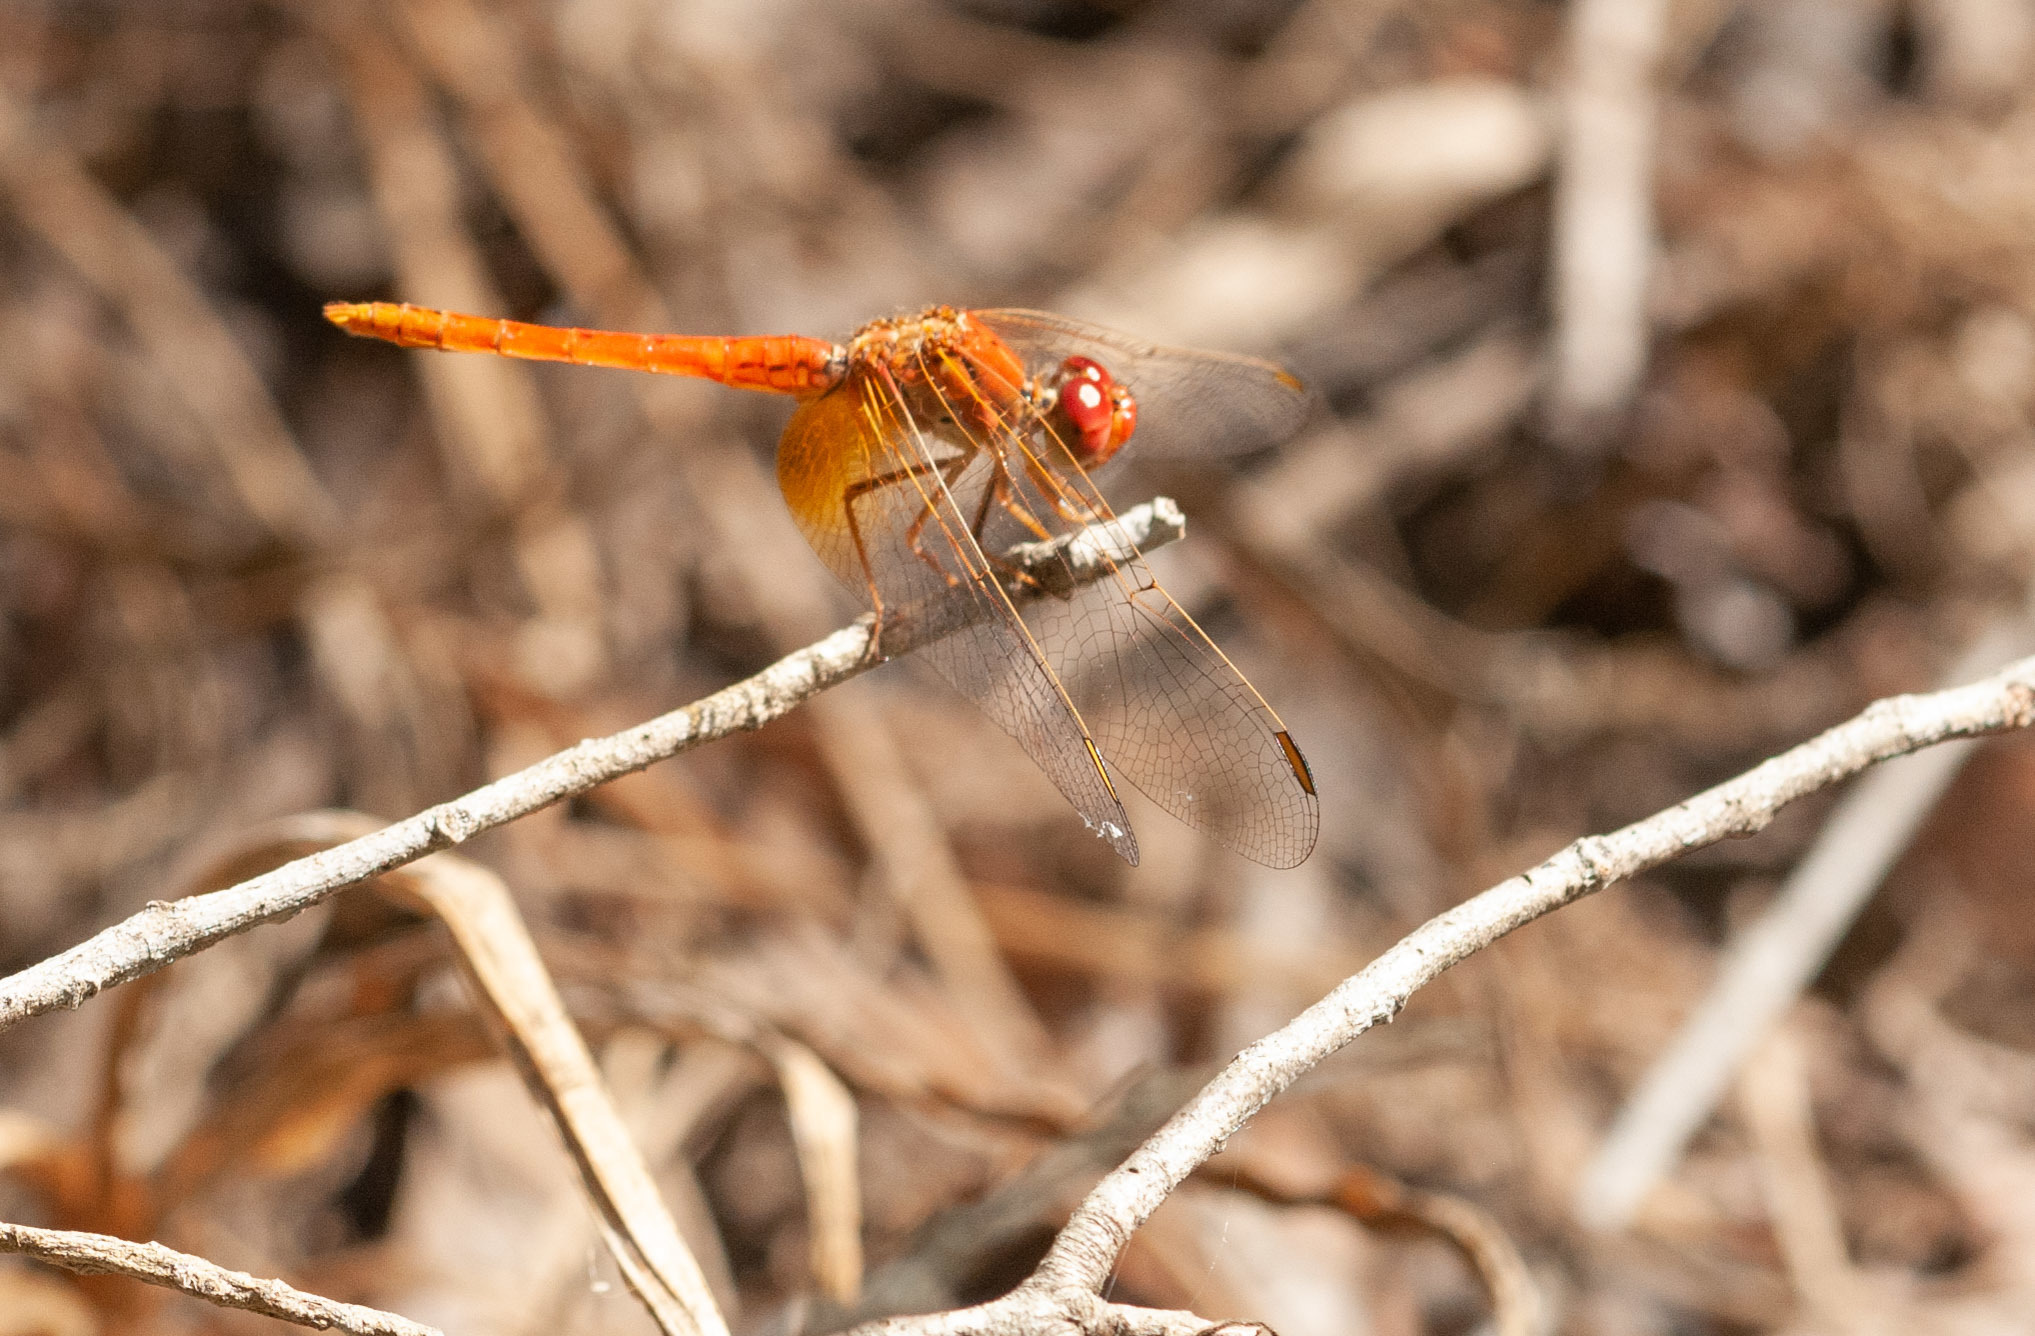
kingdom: Animalia
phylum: Arthropoda
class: Insecta
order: Odonata
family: Libellulidae
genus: Diplacodes
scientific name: Diplacodes haematodes
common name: Scarlet percher
